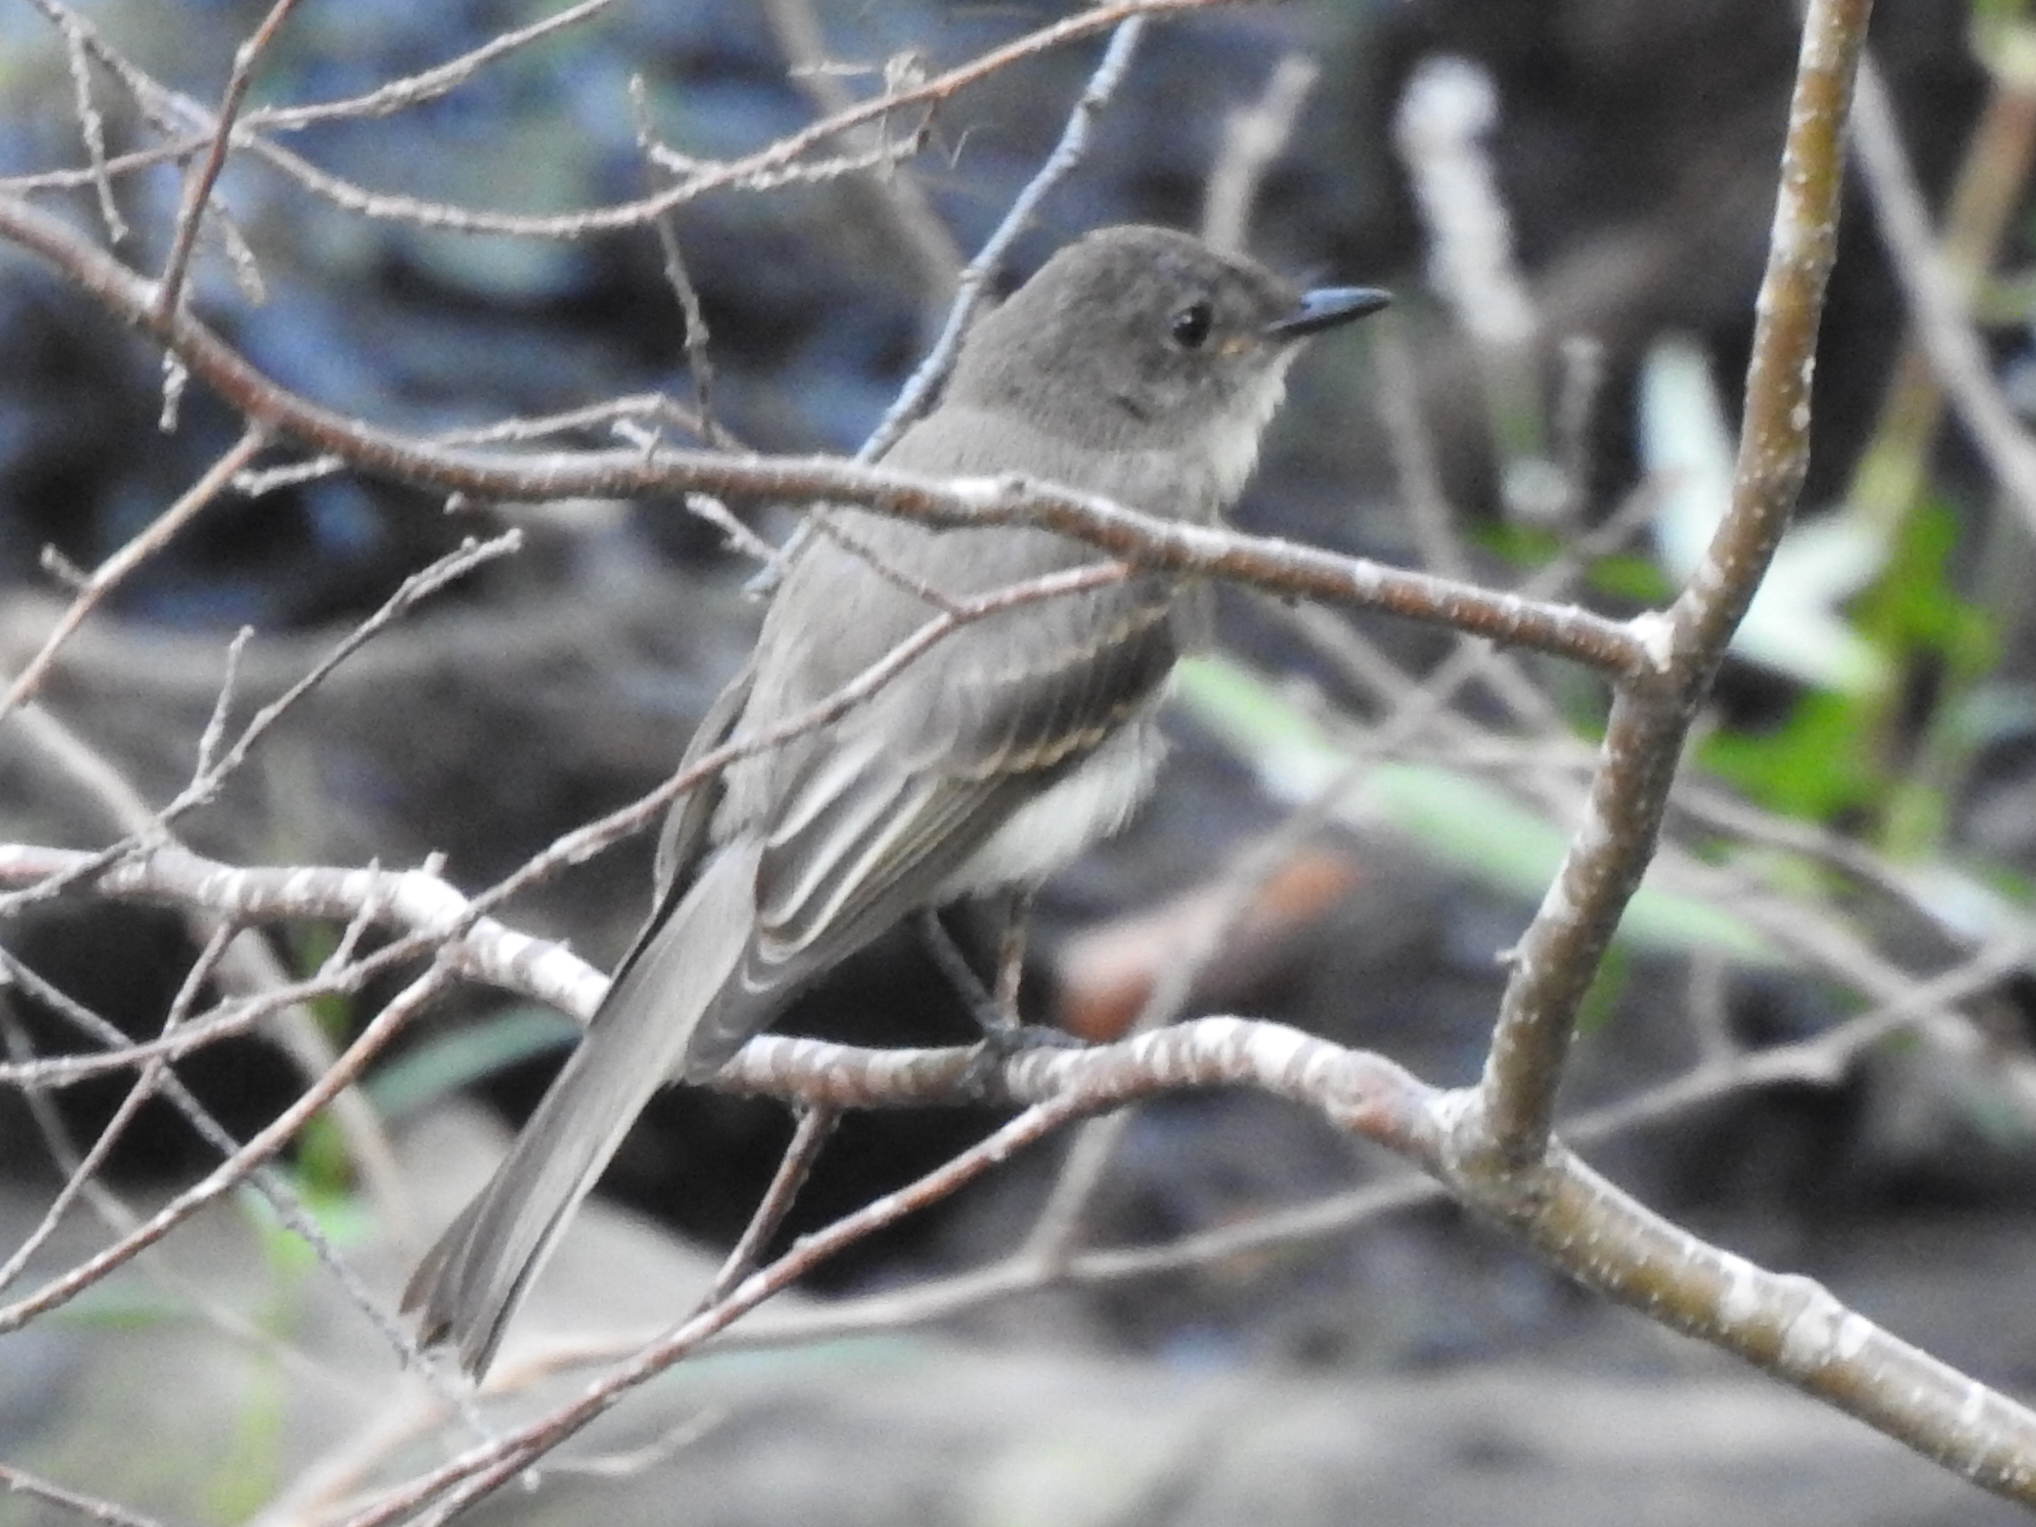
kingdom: Animalia
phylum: Chordata
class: Aves
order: Passeriformes
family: Tyrannidae
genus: Sayornis
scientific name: Sayornis phoebe
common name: Eastern phoebe
